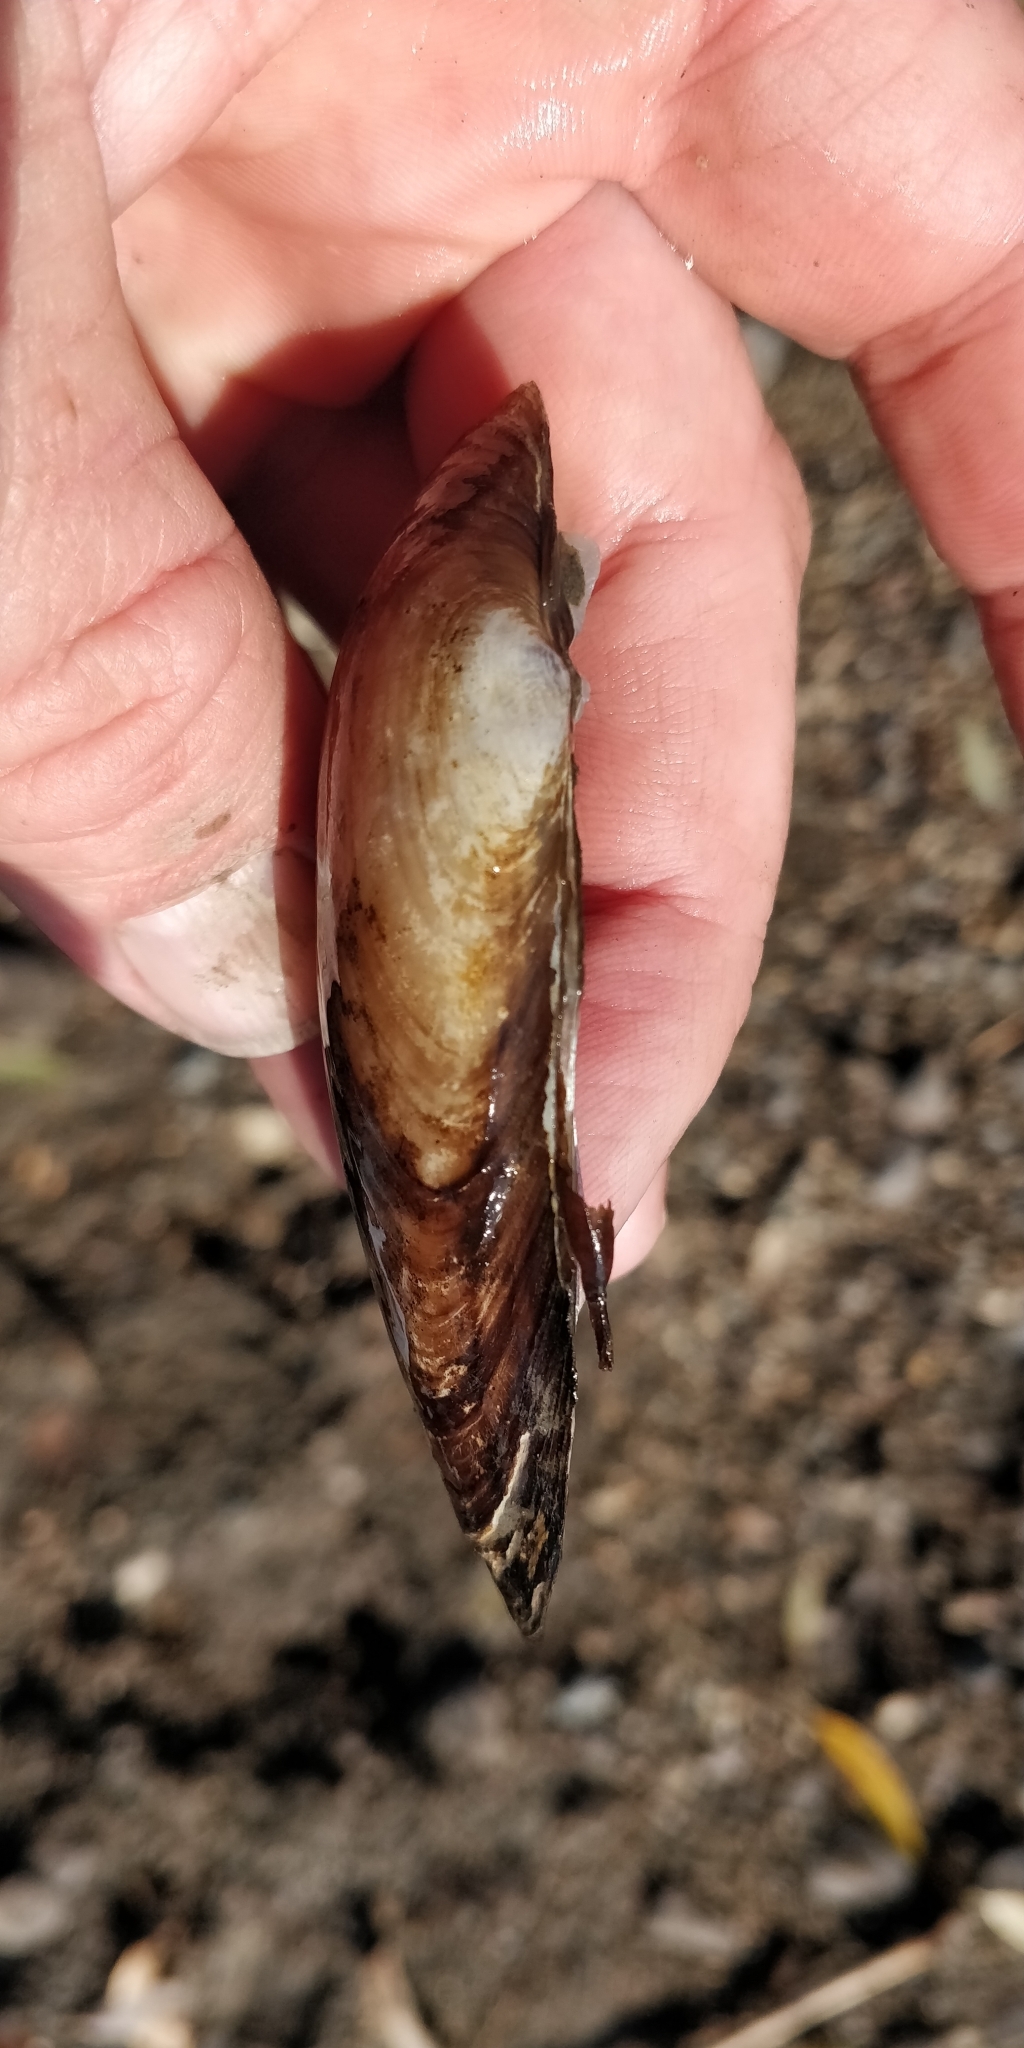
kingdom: Animalia
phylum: Mollusca
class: Bivalvia
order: Unionida
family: Unionidae
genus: Lampsilis
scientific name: Lampsilis teres
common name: Yellow sandshell
